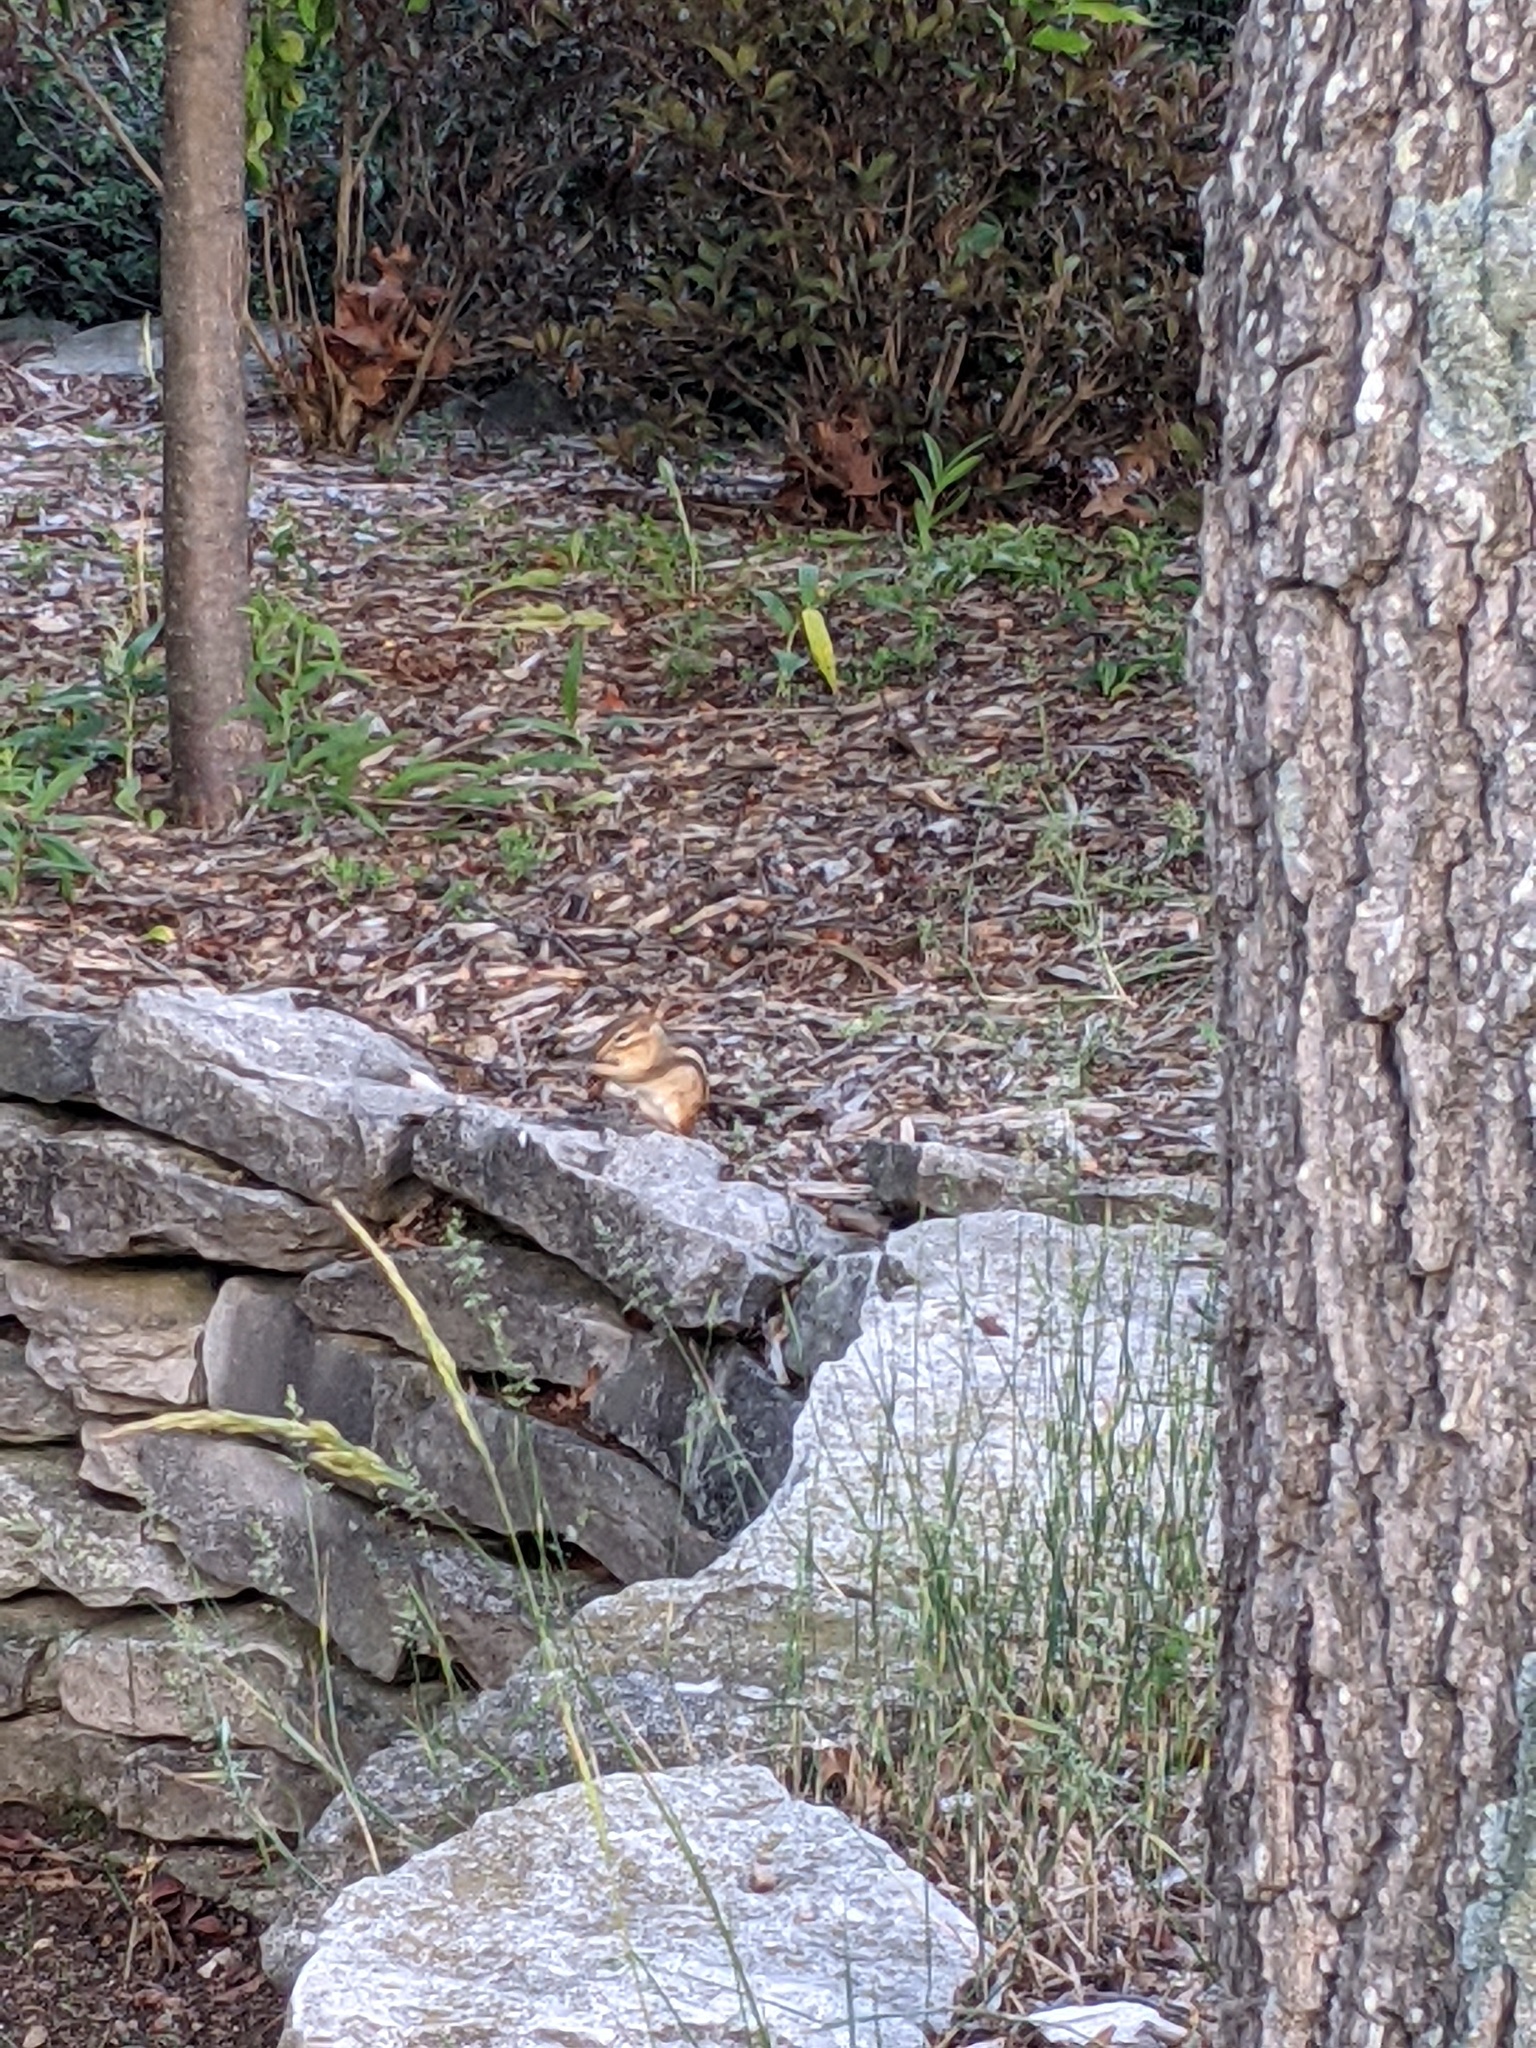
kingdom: Animalia
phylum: Chordata
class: Mammalia
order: Rodentia
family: Sciuridae
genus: Tamias
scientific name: Tamias striatus
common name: Eastern chipmunk
